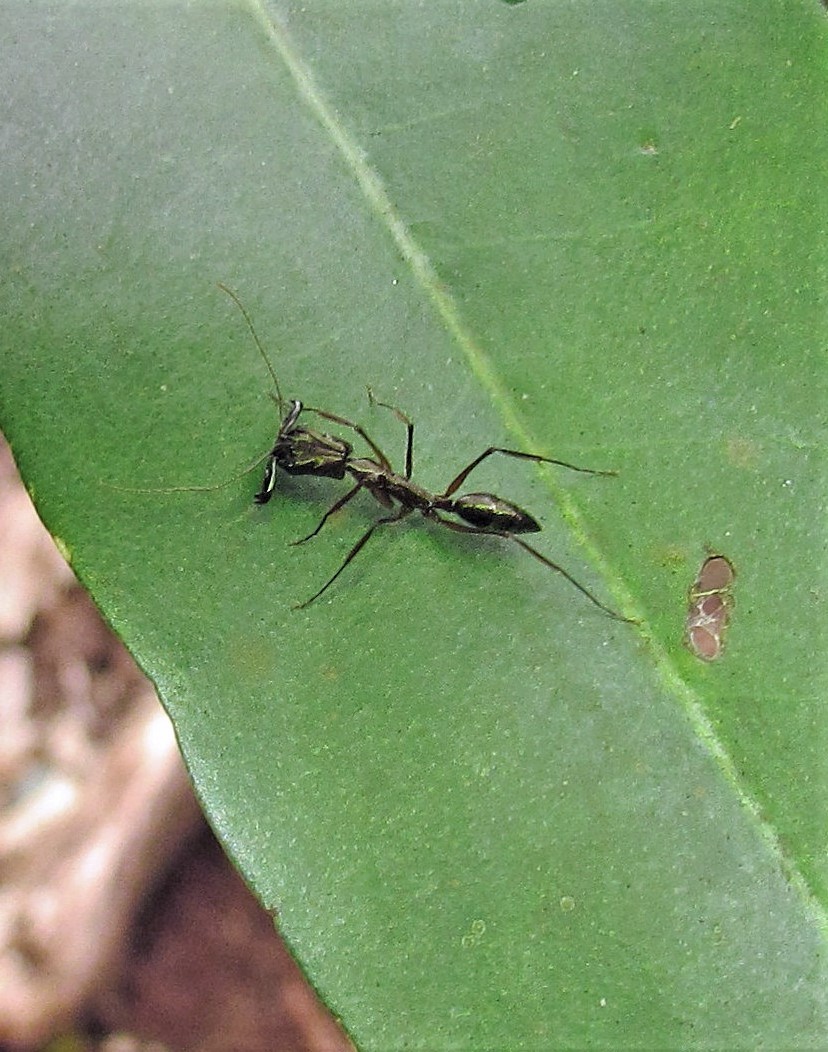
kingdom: Animalia
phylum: Arthropoda
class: Insecta
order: Hymenoptera
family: Formicidae
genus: Odontomachus
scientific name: Odontomachus chelifer
